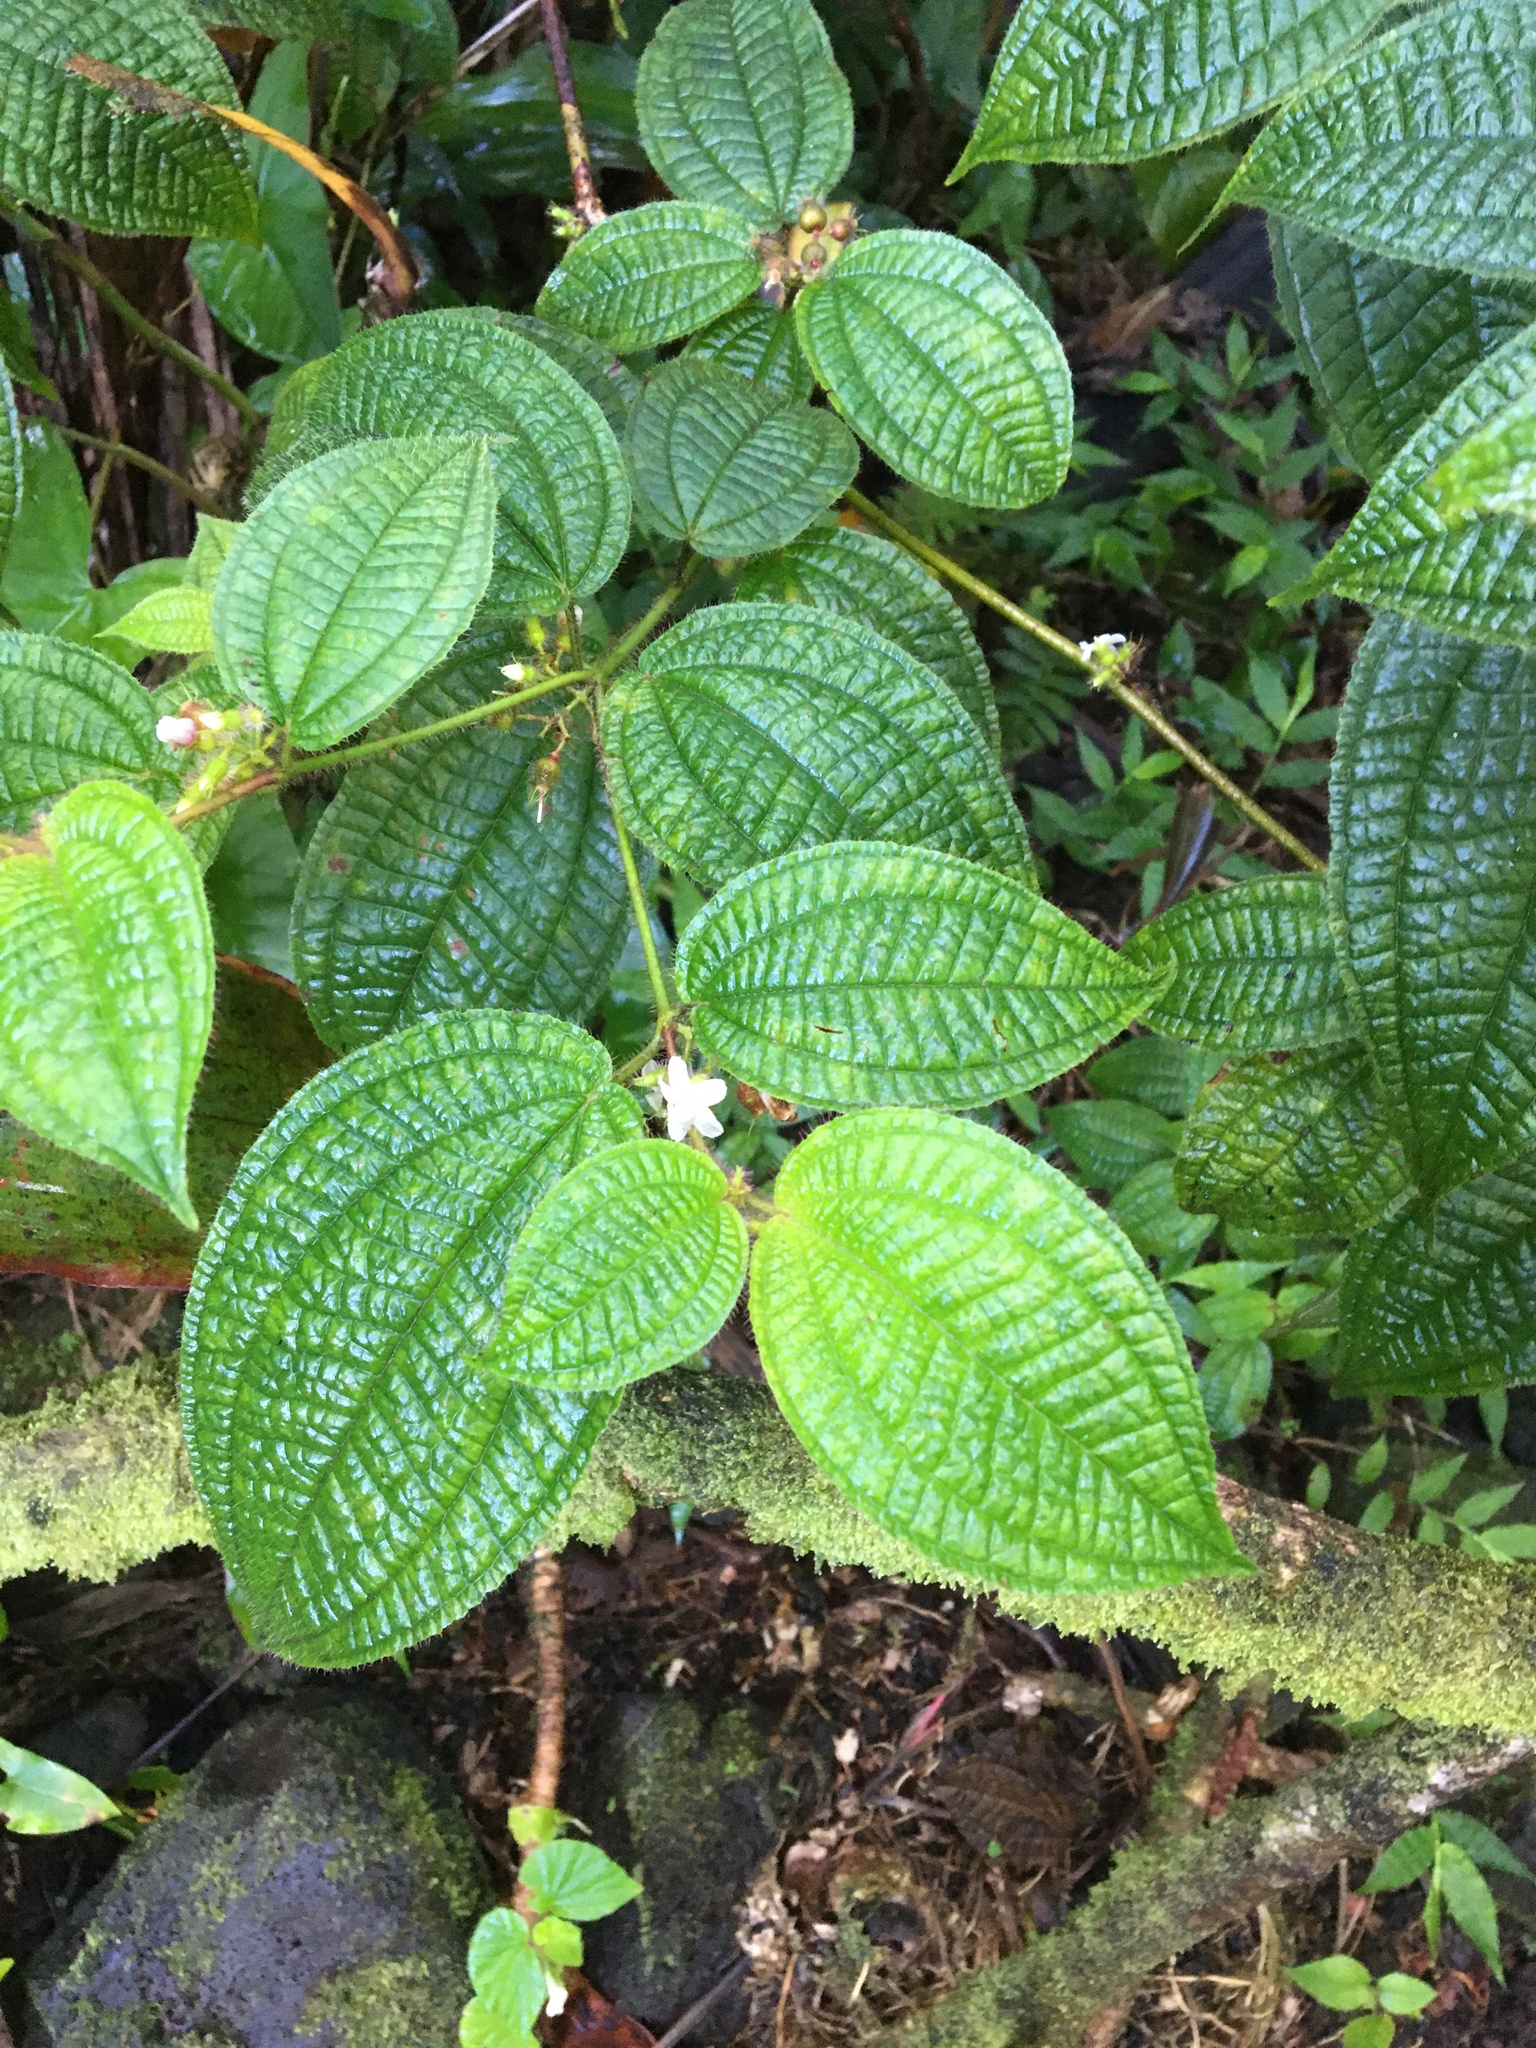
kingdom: Plantae
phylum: Tracheophyta
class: Magnoliopsida
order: Myrtales
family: Melastomataceae
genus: Miconia
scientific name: Miconia crenata
